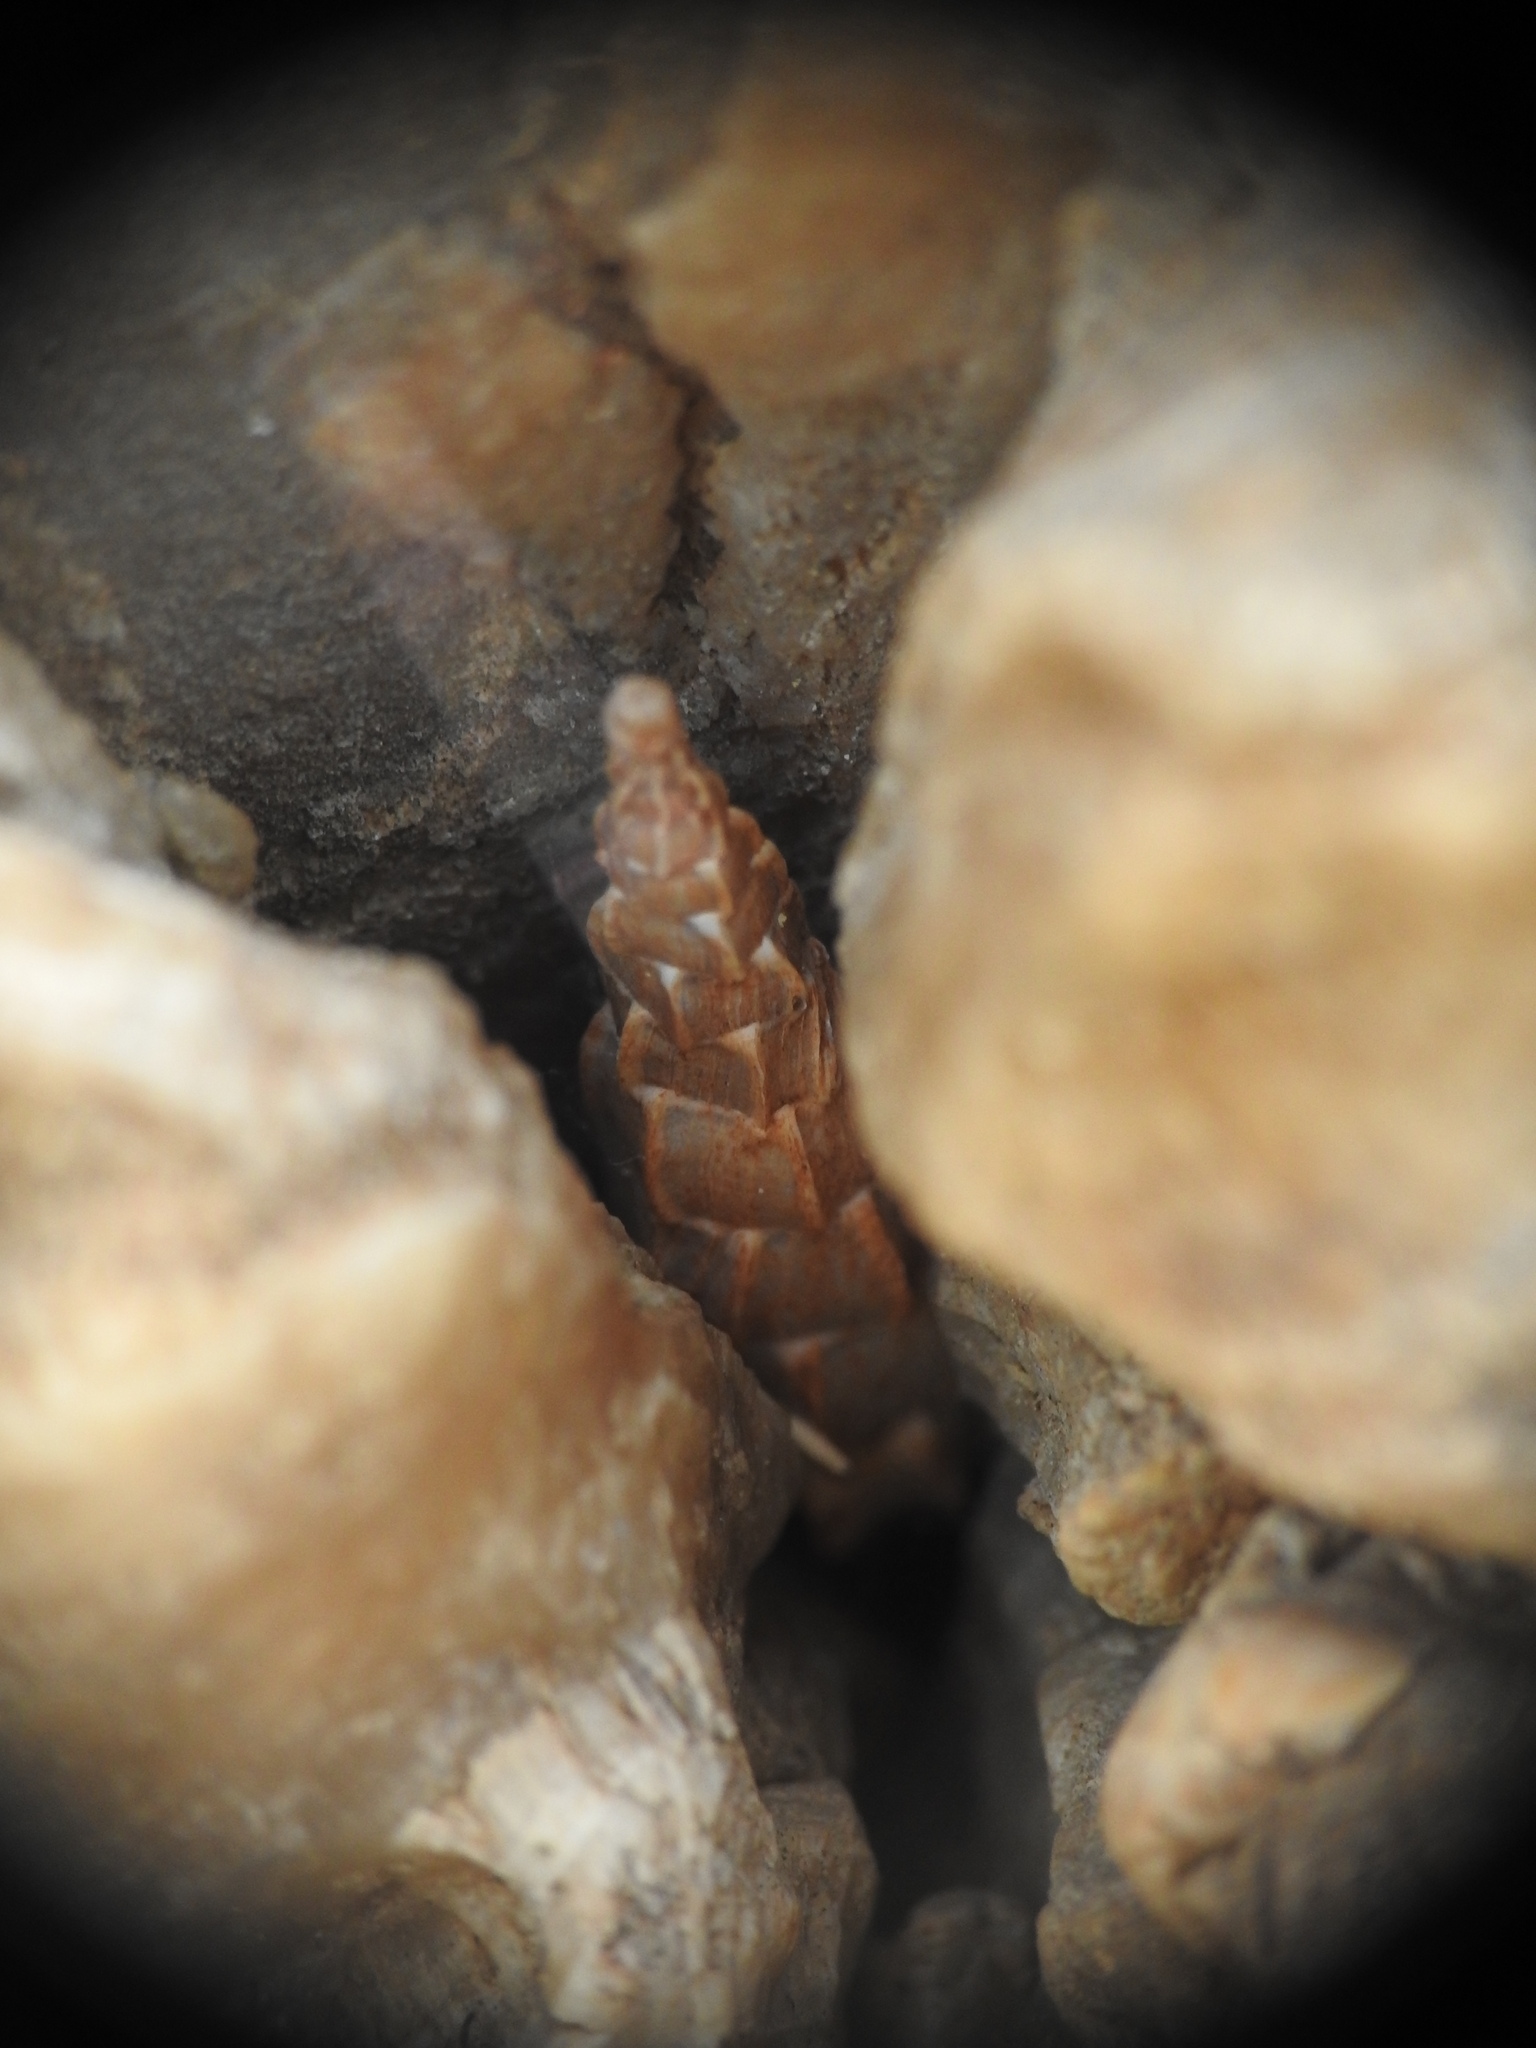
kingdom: Animalia
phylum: Mollusca
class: Gastropoda
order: Stylommatophora
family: Clausiliidae
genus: Albinaria
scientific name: Albinaria praeclara
